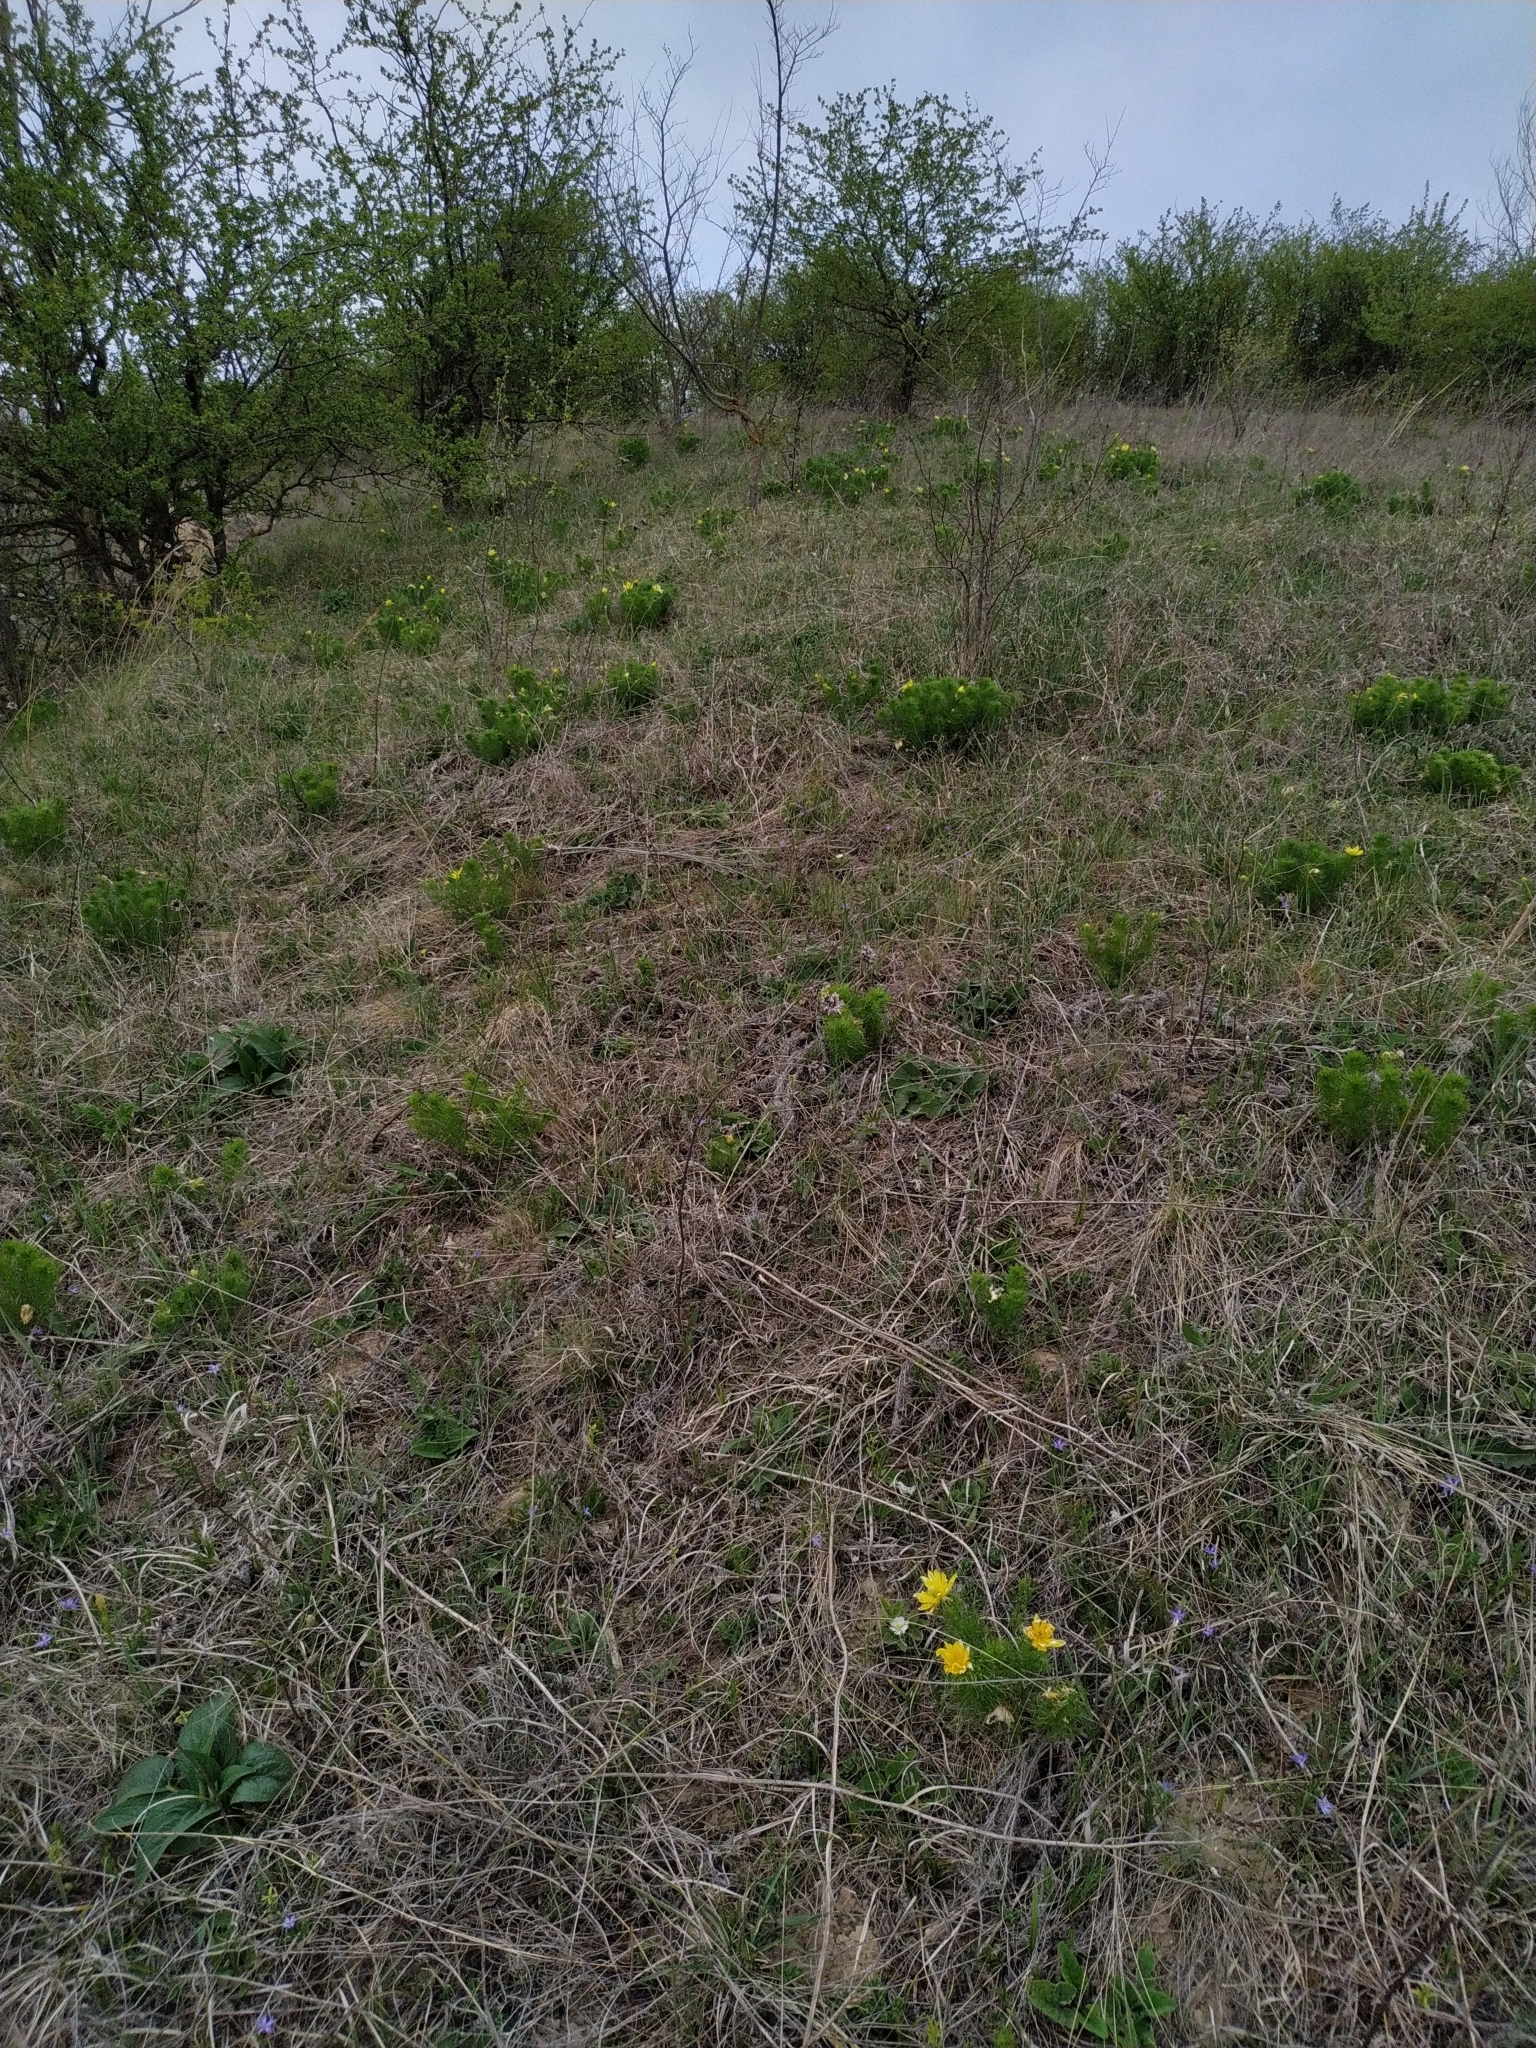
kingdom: Plantae
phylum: Tracheophyta
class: Magnoliopsida
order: Ranunculales
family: Ranunculaceae
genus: Adonis
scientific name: Adonis vernalis
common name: Yellow pheasants-eye
